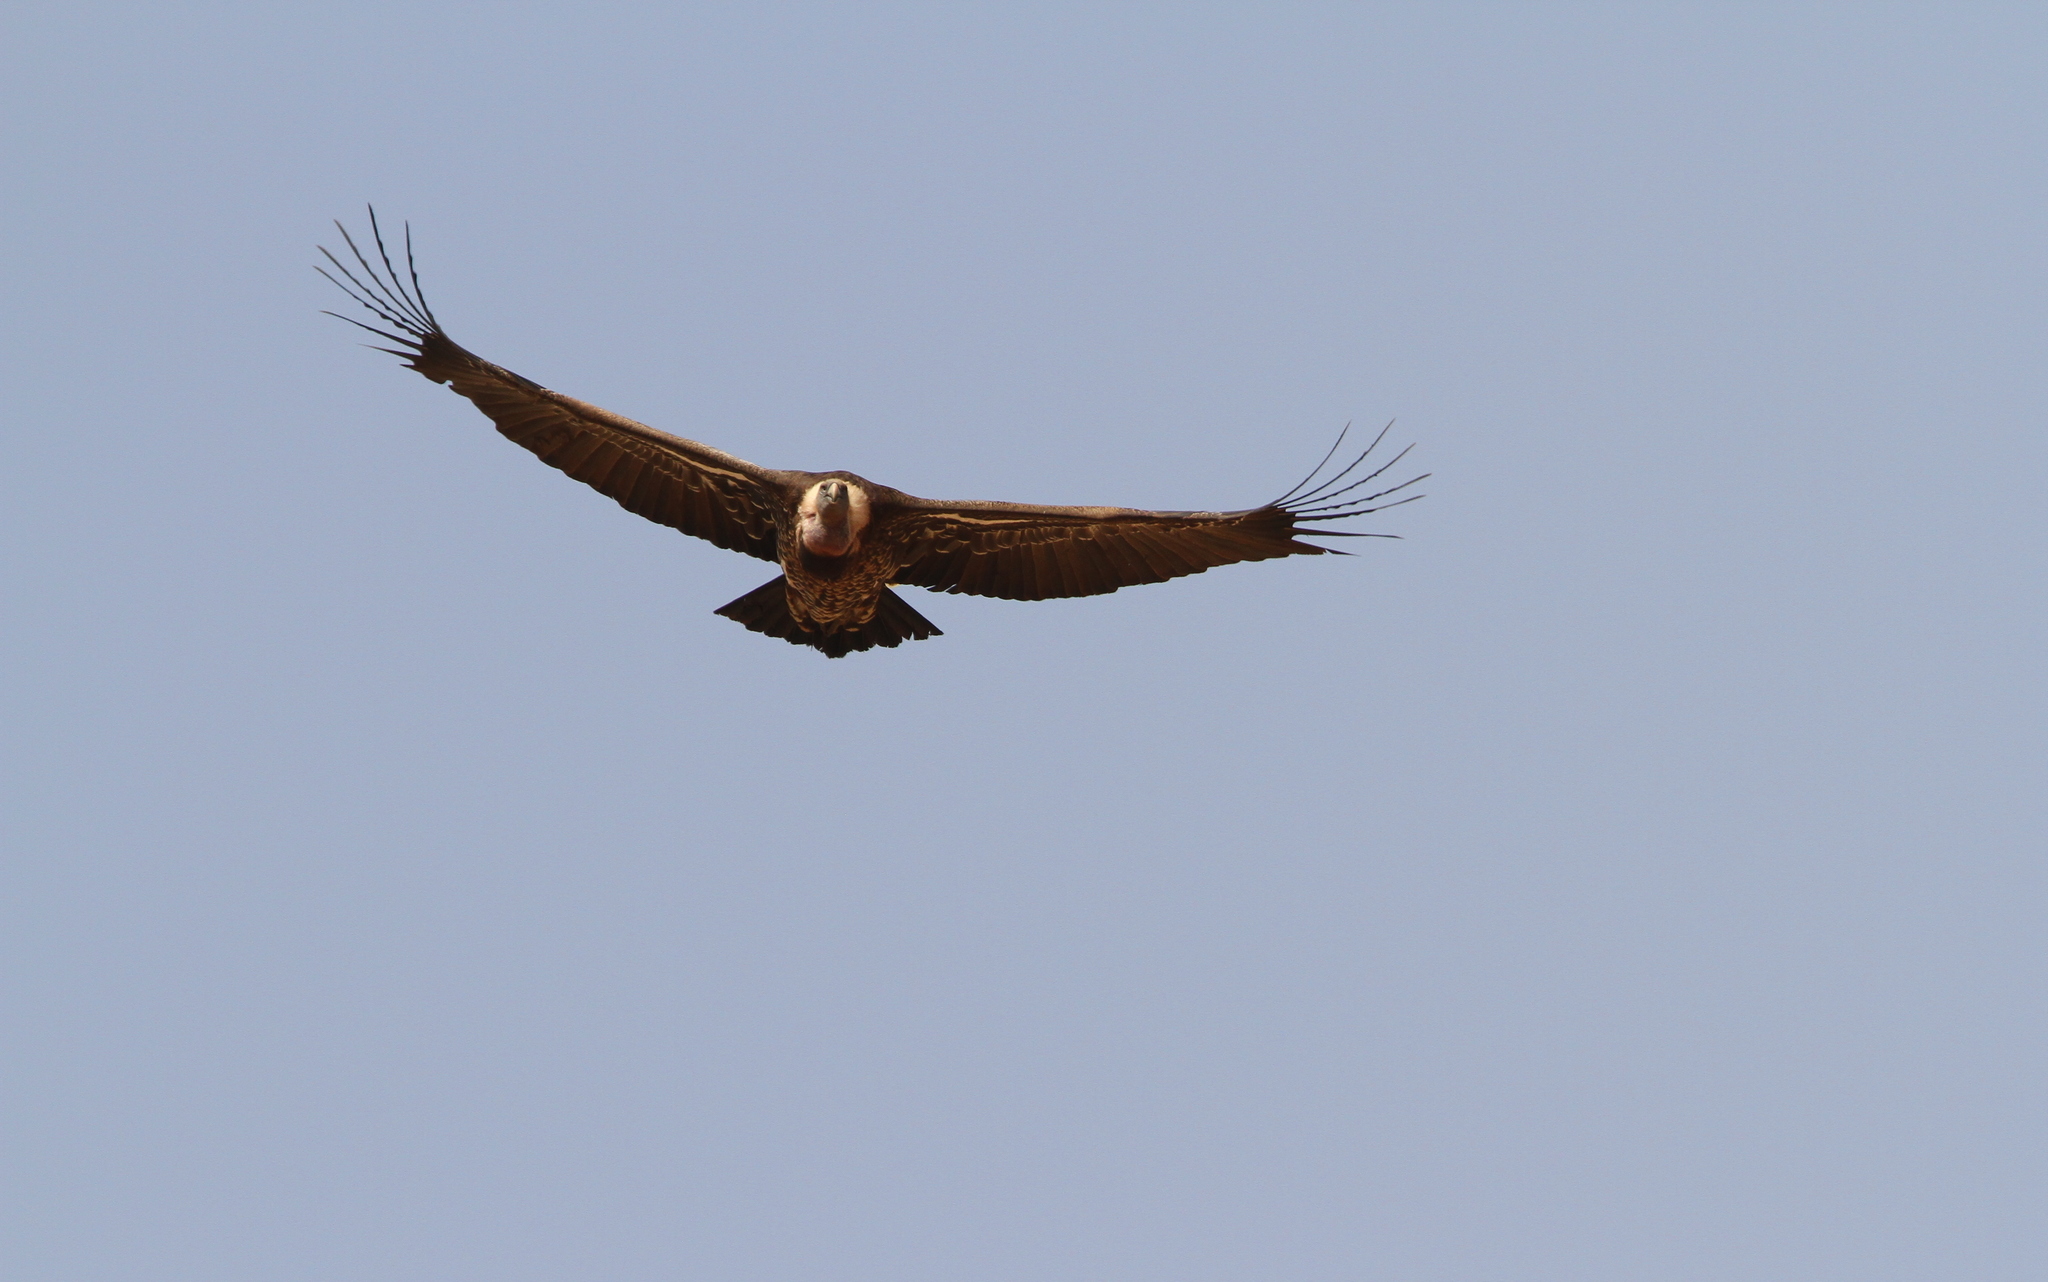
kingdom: Animalia
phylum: Chordata
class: Aves
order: Accipitriformes
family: Accipitridae
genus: Gyps
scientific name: Gyps rueppellii
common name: Rüppell's vulture
